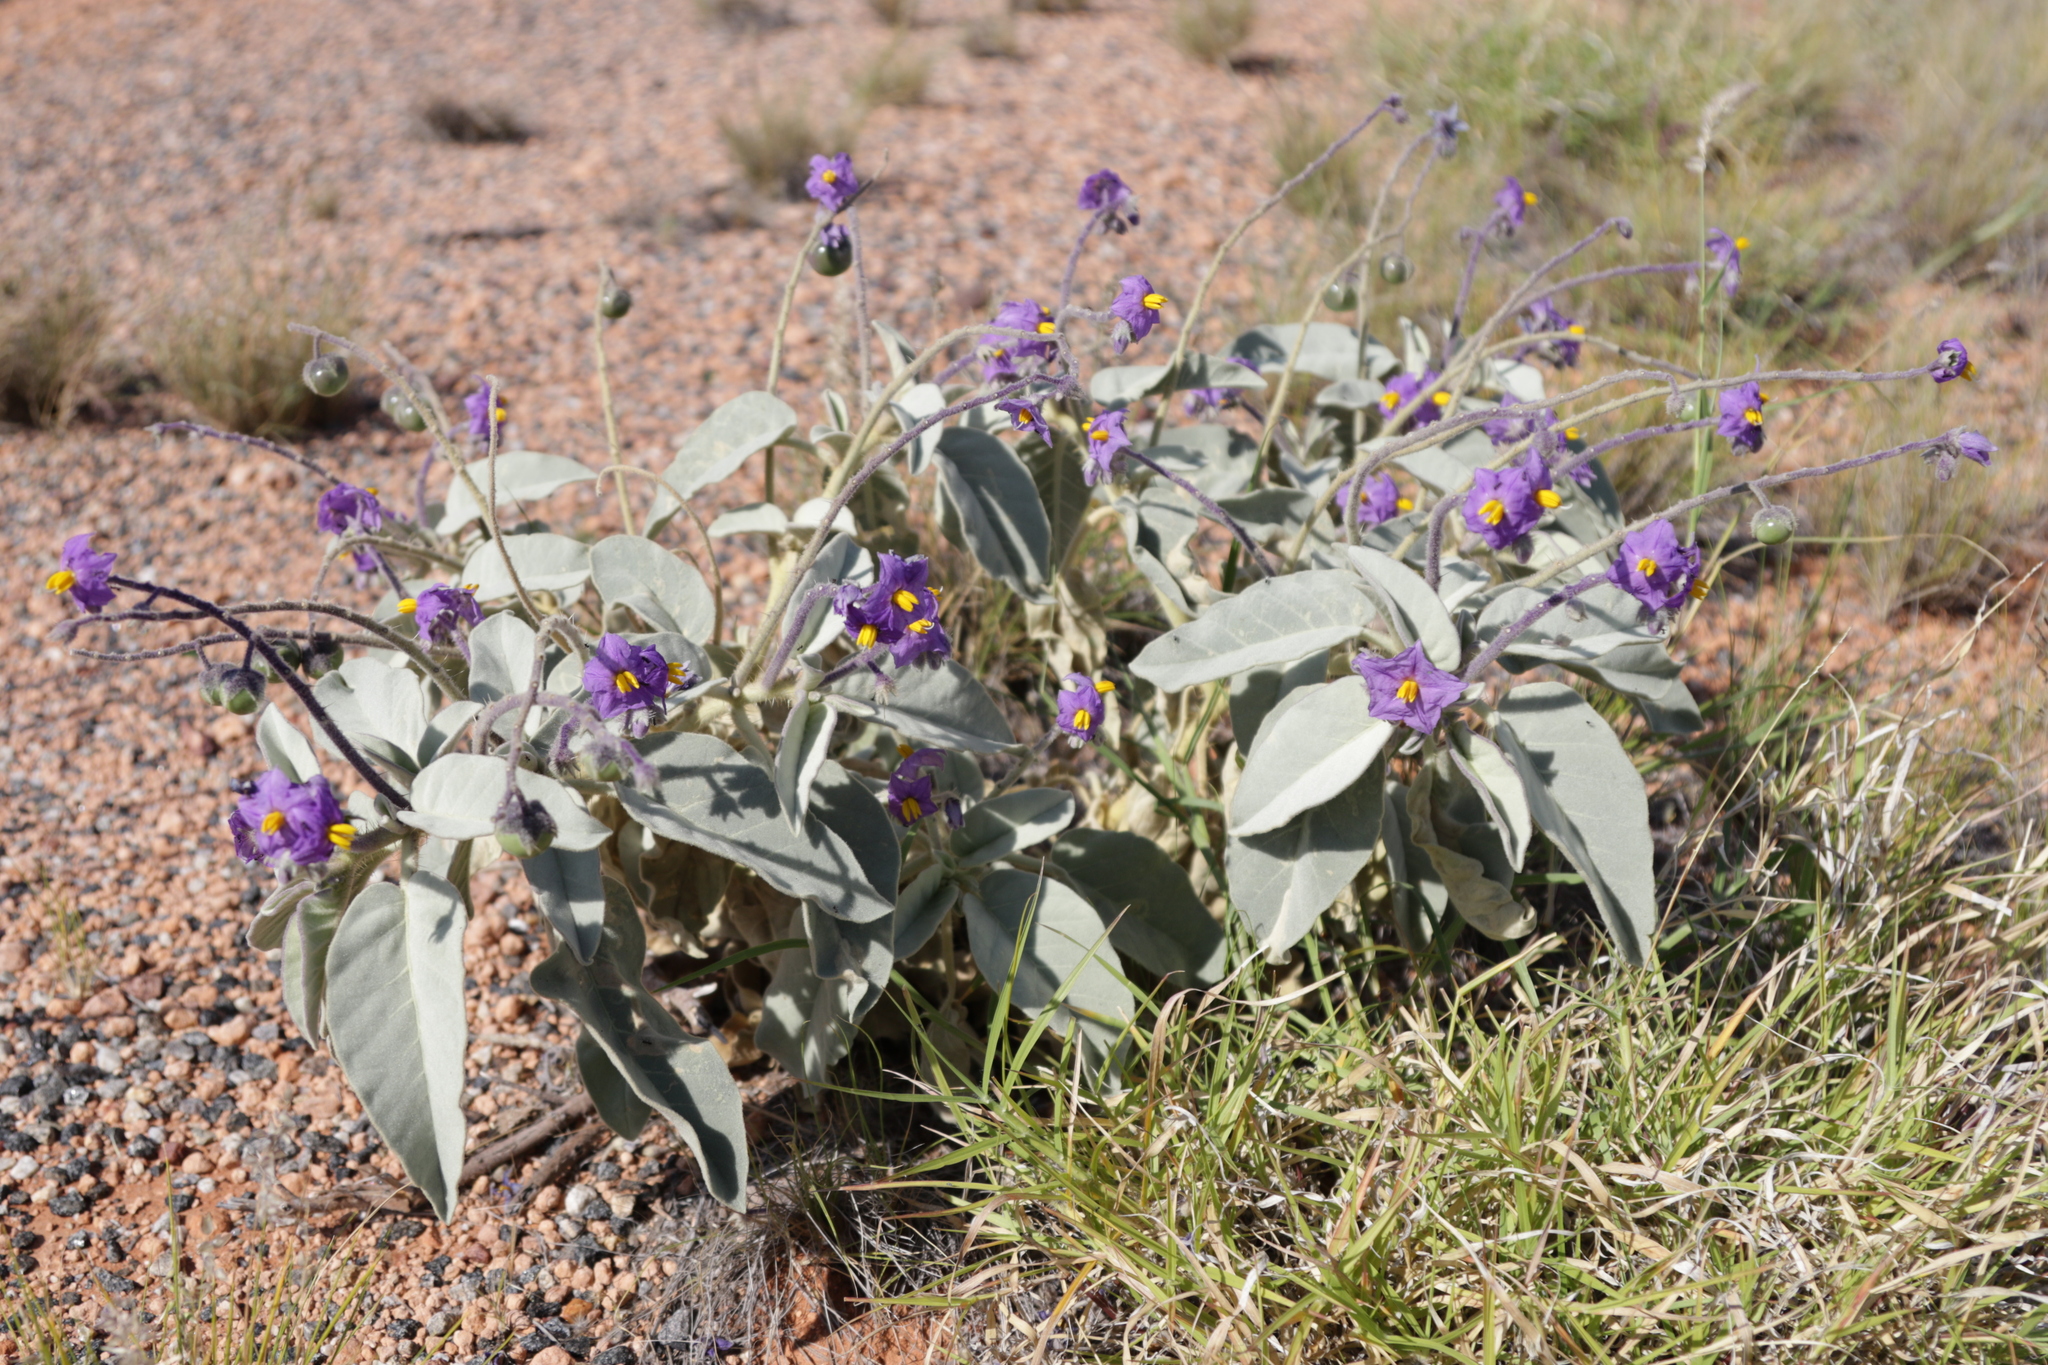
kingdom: Plantae
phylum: Tracheophyta
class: Magnoliopsida
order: Solanales
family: Solanaceae
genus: Solanum
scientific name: Solanum quadriloculatum
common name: Wild tomato
